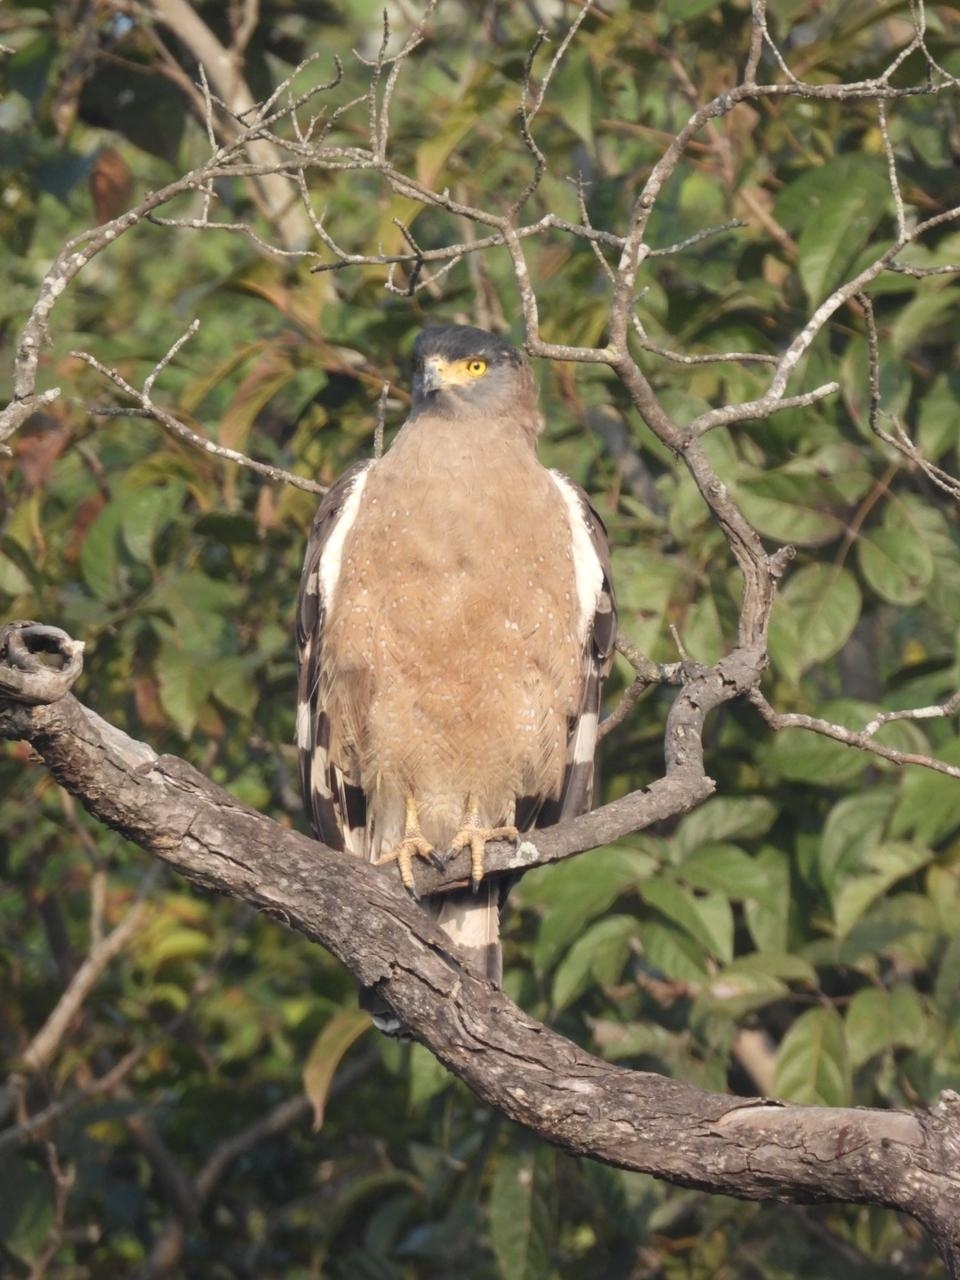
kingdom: Animalia
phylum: Chordata
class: Aves
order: Accipitriformes
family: Accipitridae
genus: Spilornis
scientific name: Spilornis cheela
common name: Crested serpent eagle
